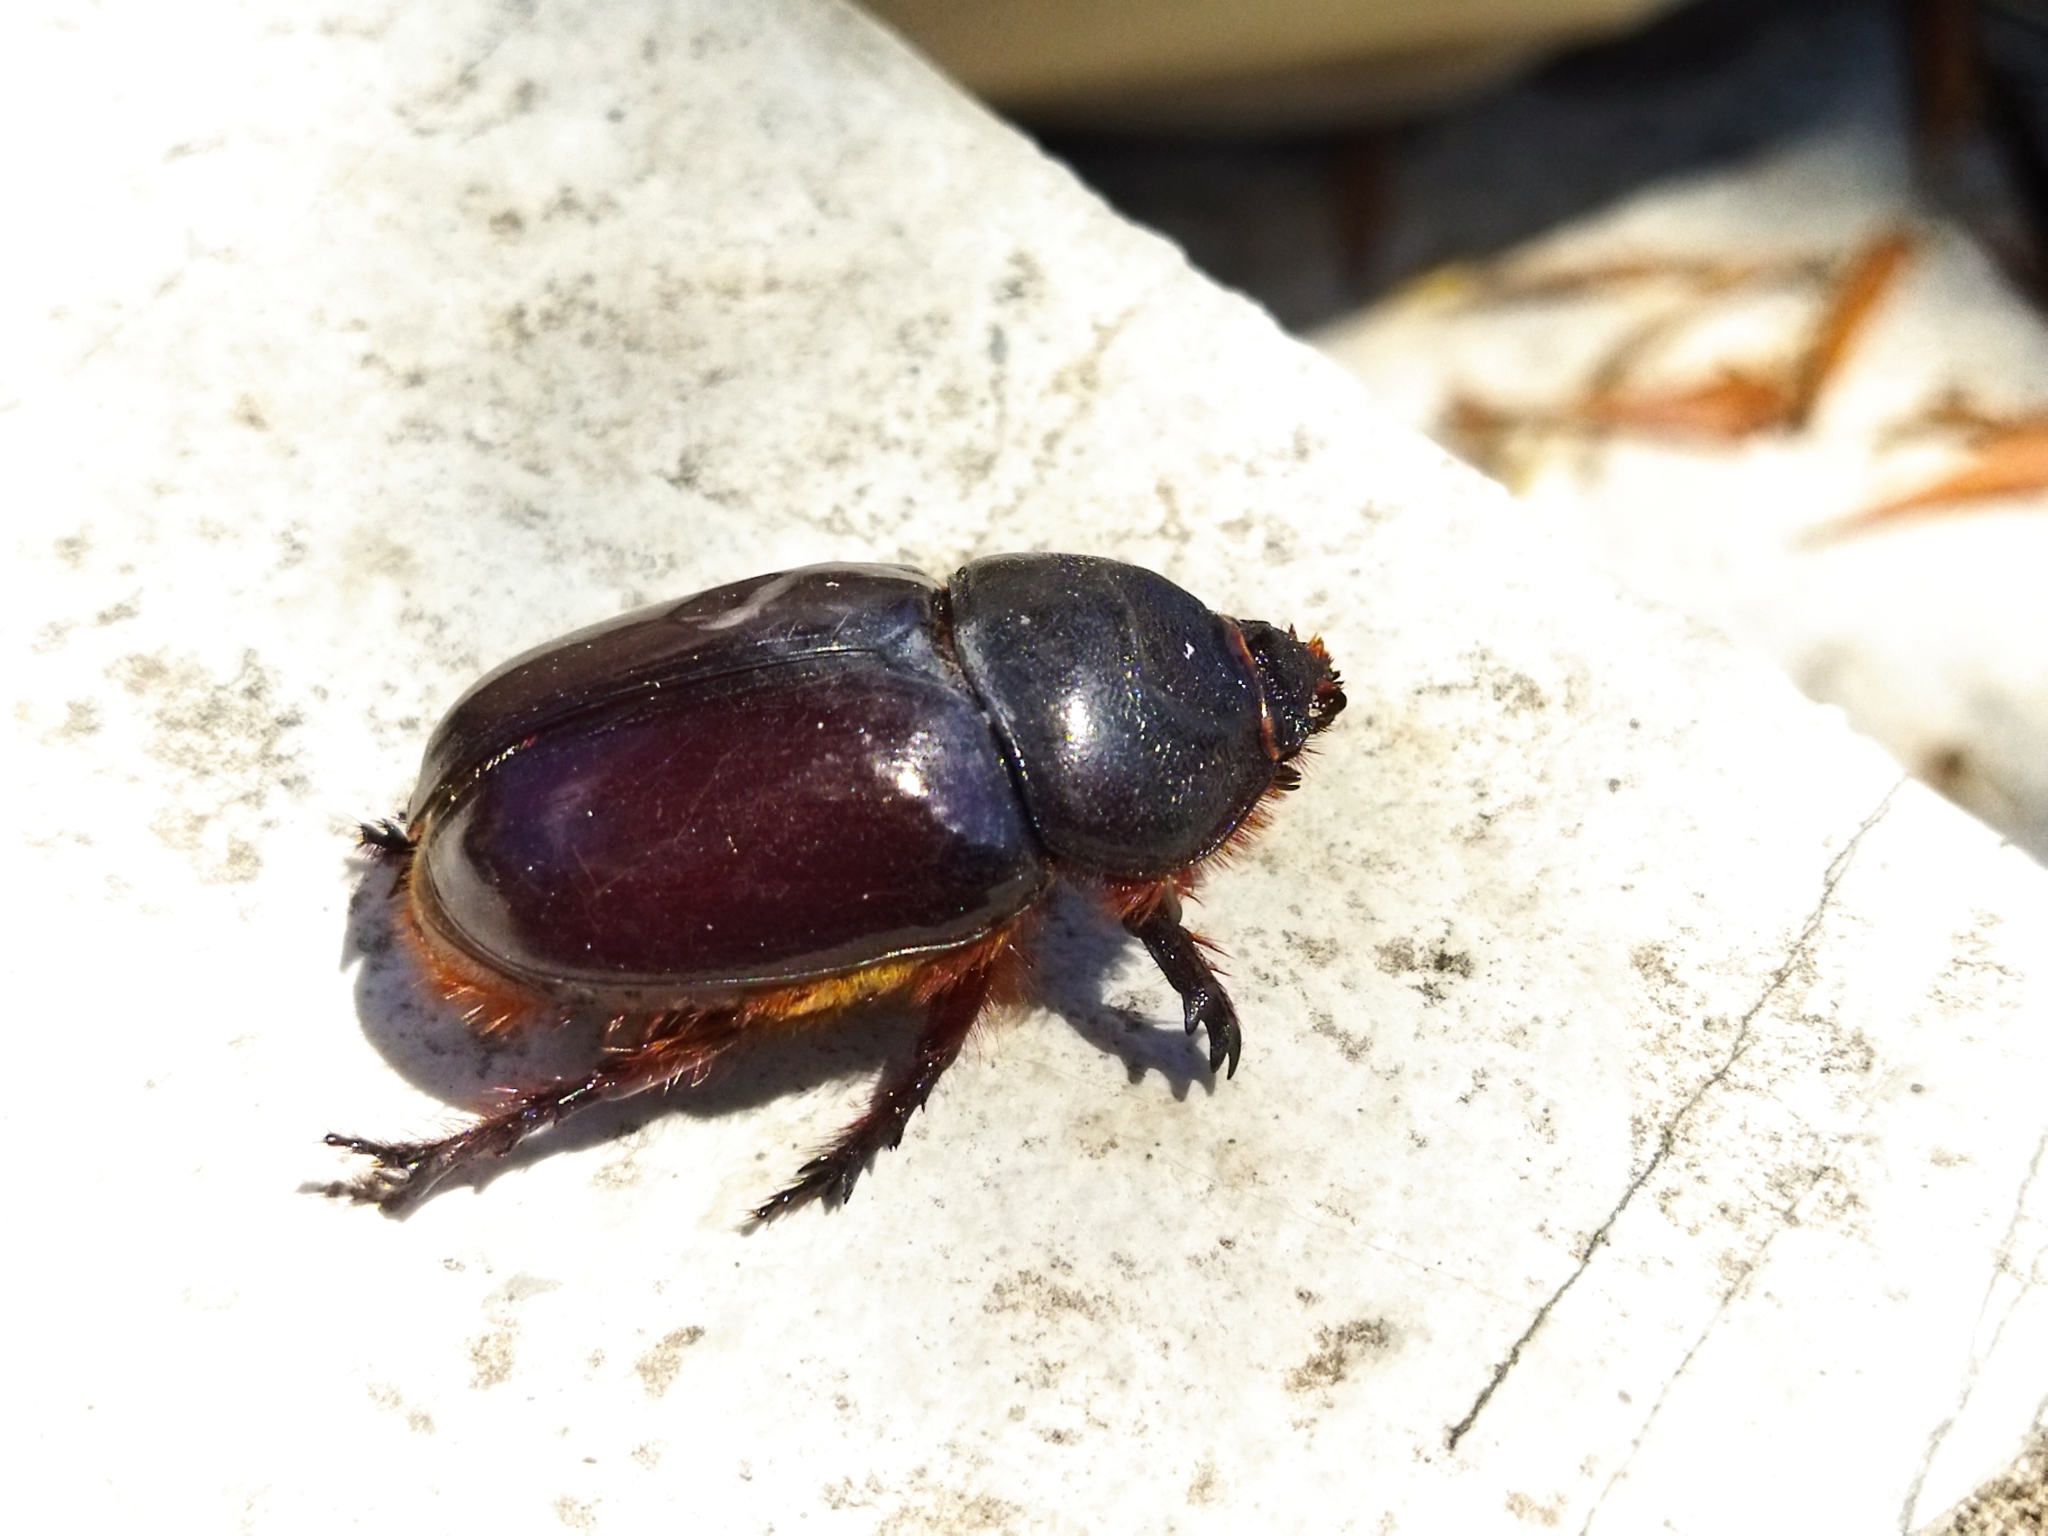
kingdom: Animalia
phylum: Arthropoda
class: Insecta
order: Coleoptera
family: Scarabaeidae
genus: Oryctes
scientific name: Oryctes nasicornis
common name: European rhinoceros beetle
